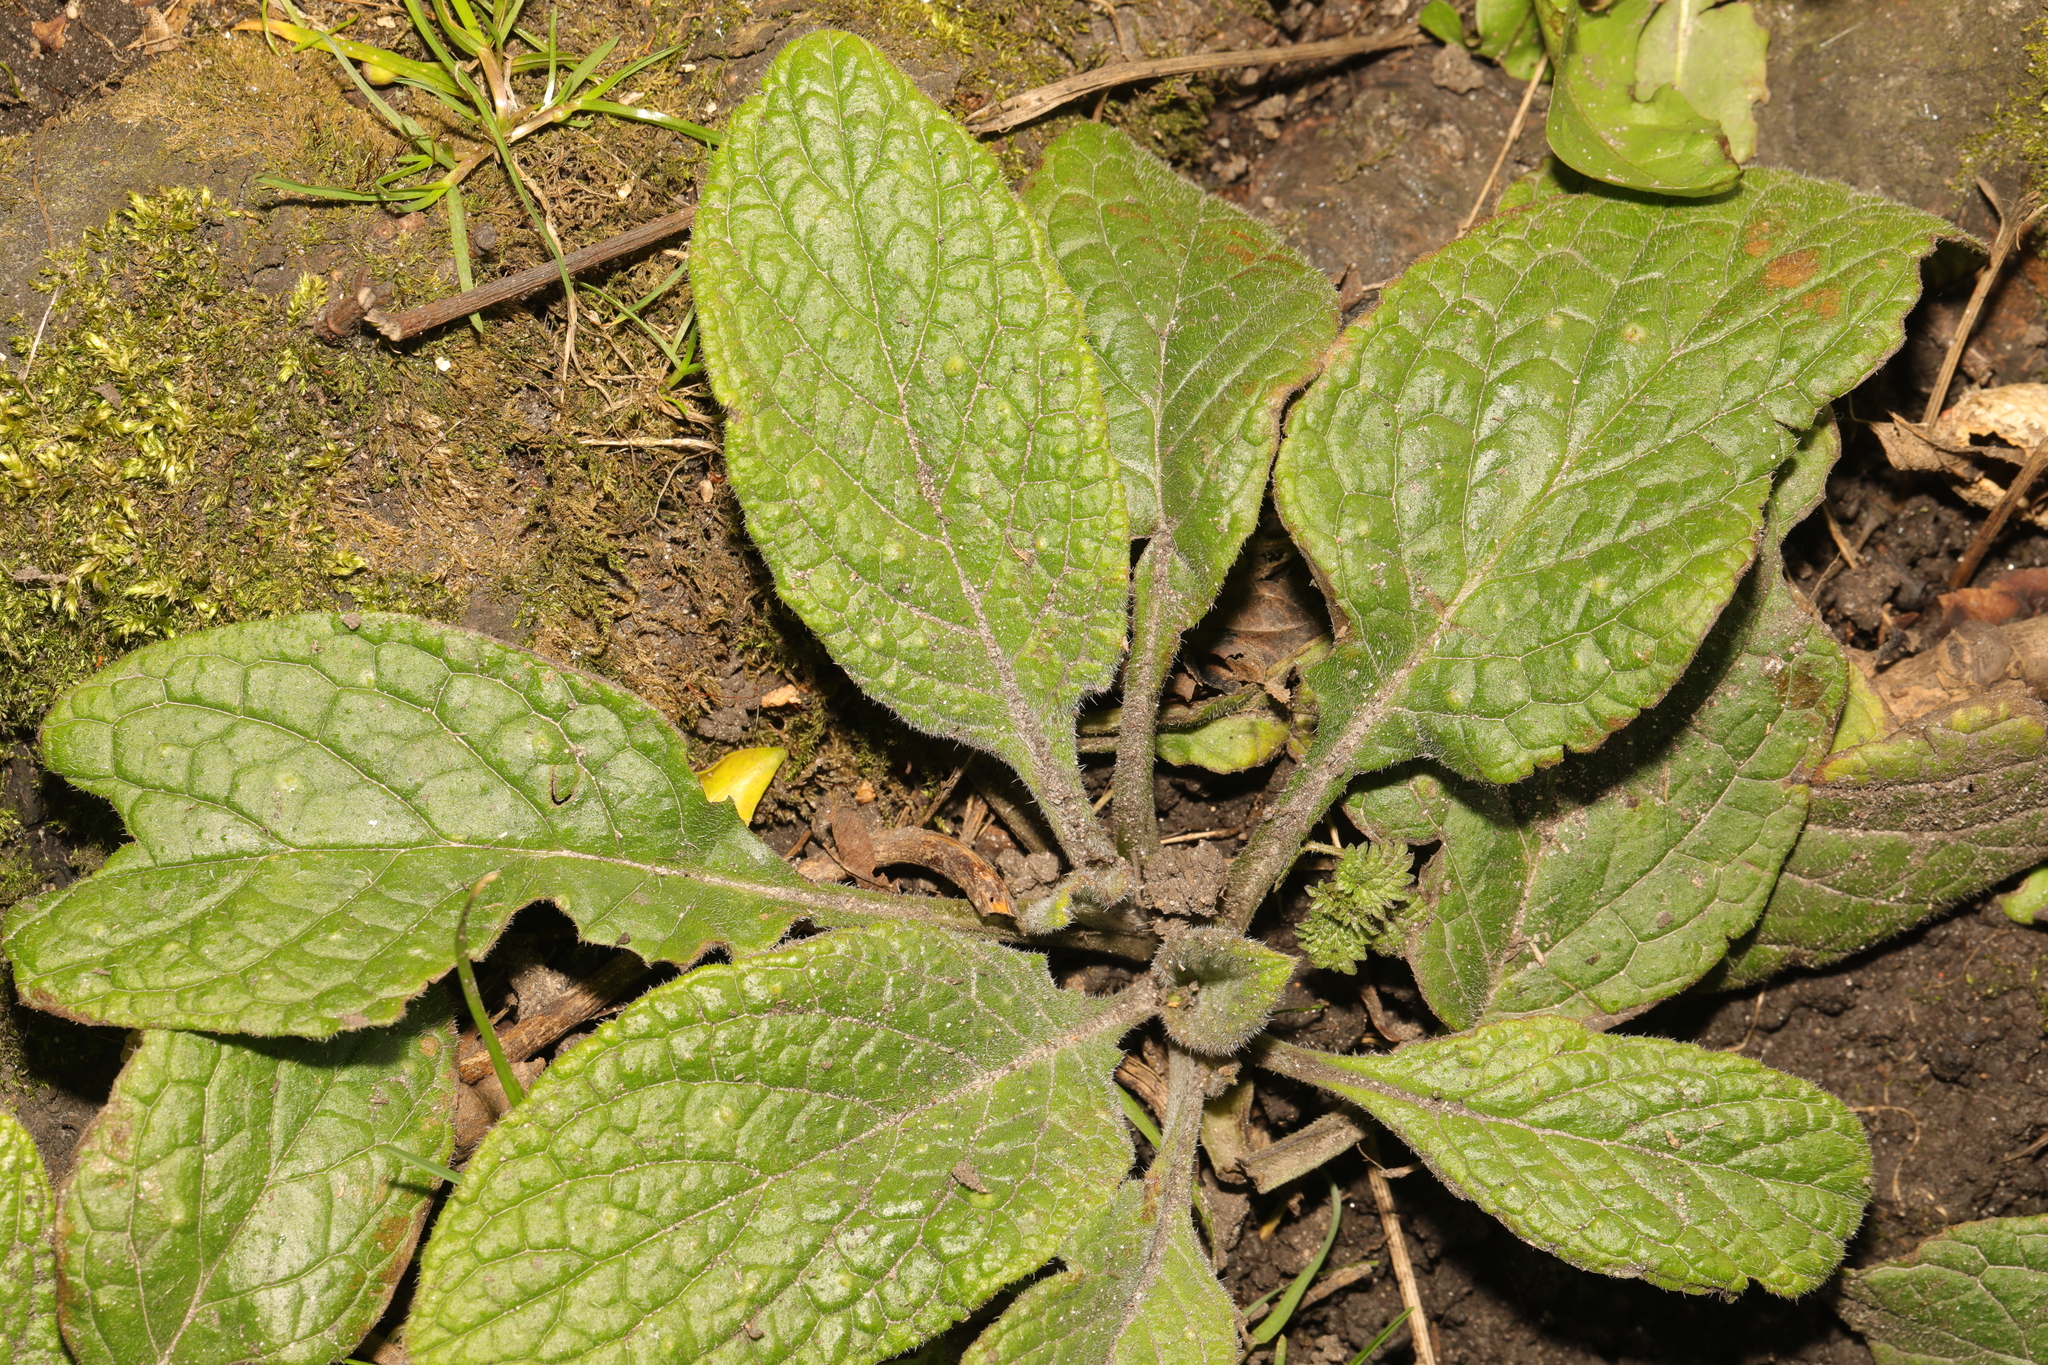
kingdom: Plantae
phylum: Tracheophyta
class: Magnoliopsida
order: Boraginales
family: Boraginaceae
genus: Pentaglottis
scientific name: Pentaglottis sempervirens
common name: Green alkanet
